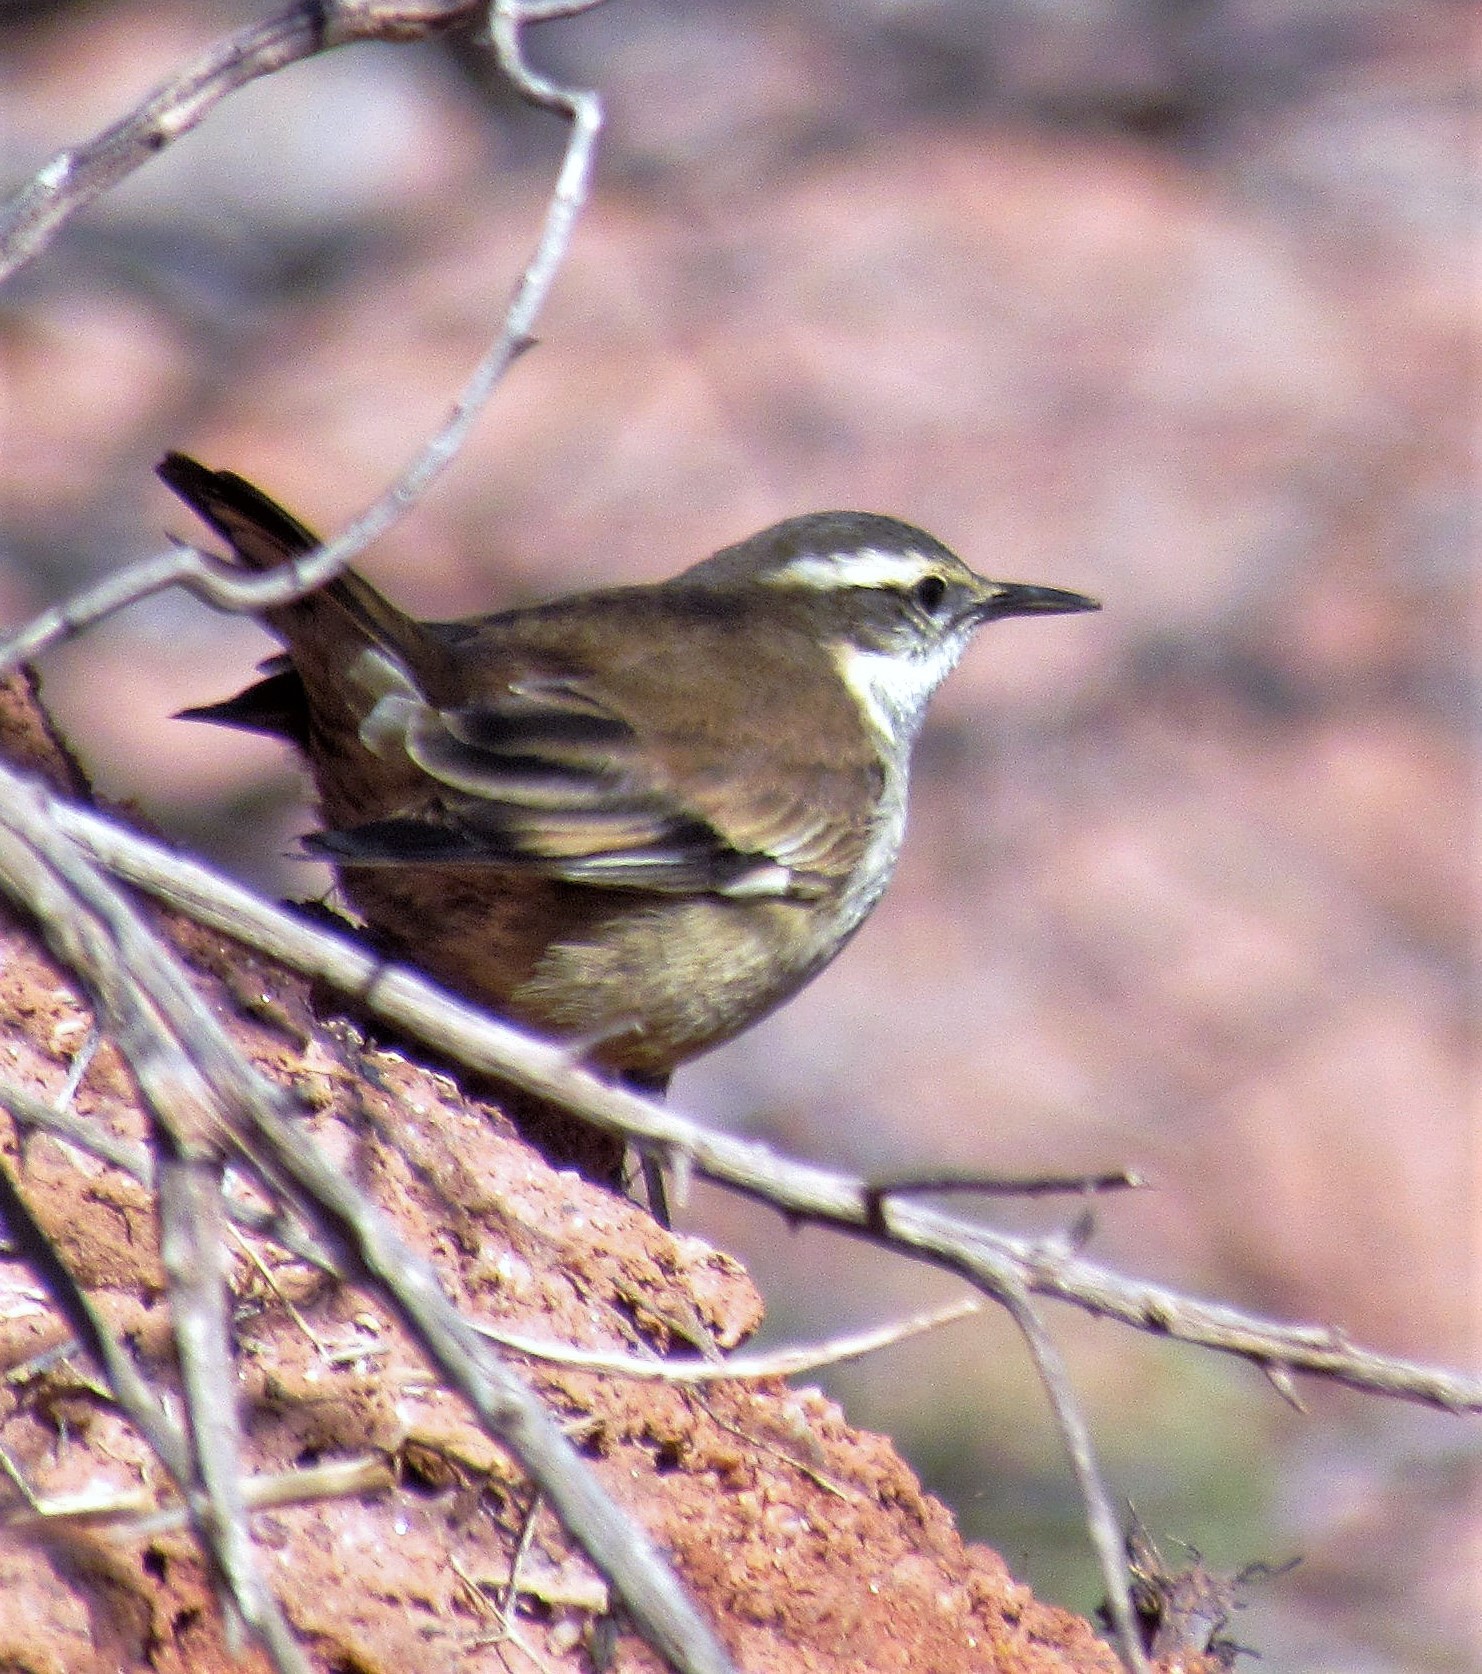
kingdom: Animalia
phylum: Chordata
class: Aves
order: Passeriformes
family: Furnariidae
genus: Cinclodes
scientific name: Cinclodes fuscus
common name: Buff-winged cinclodes
